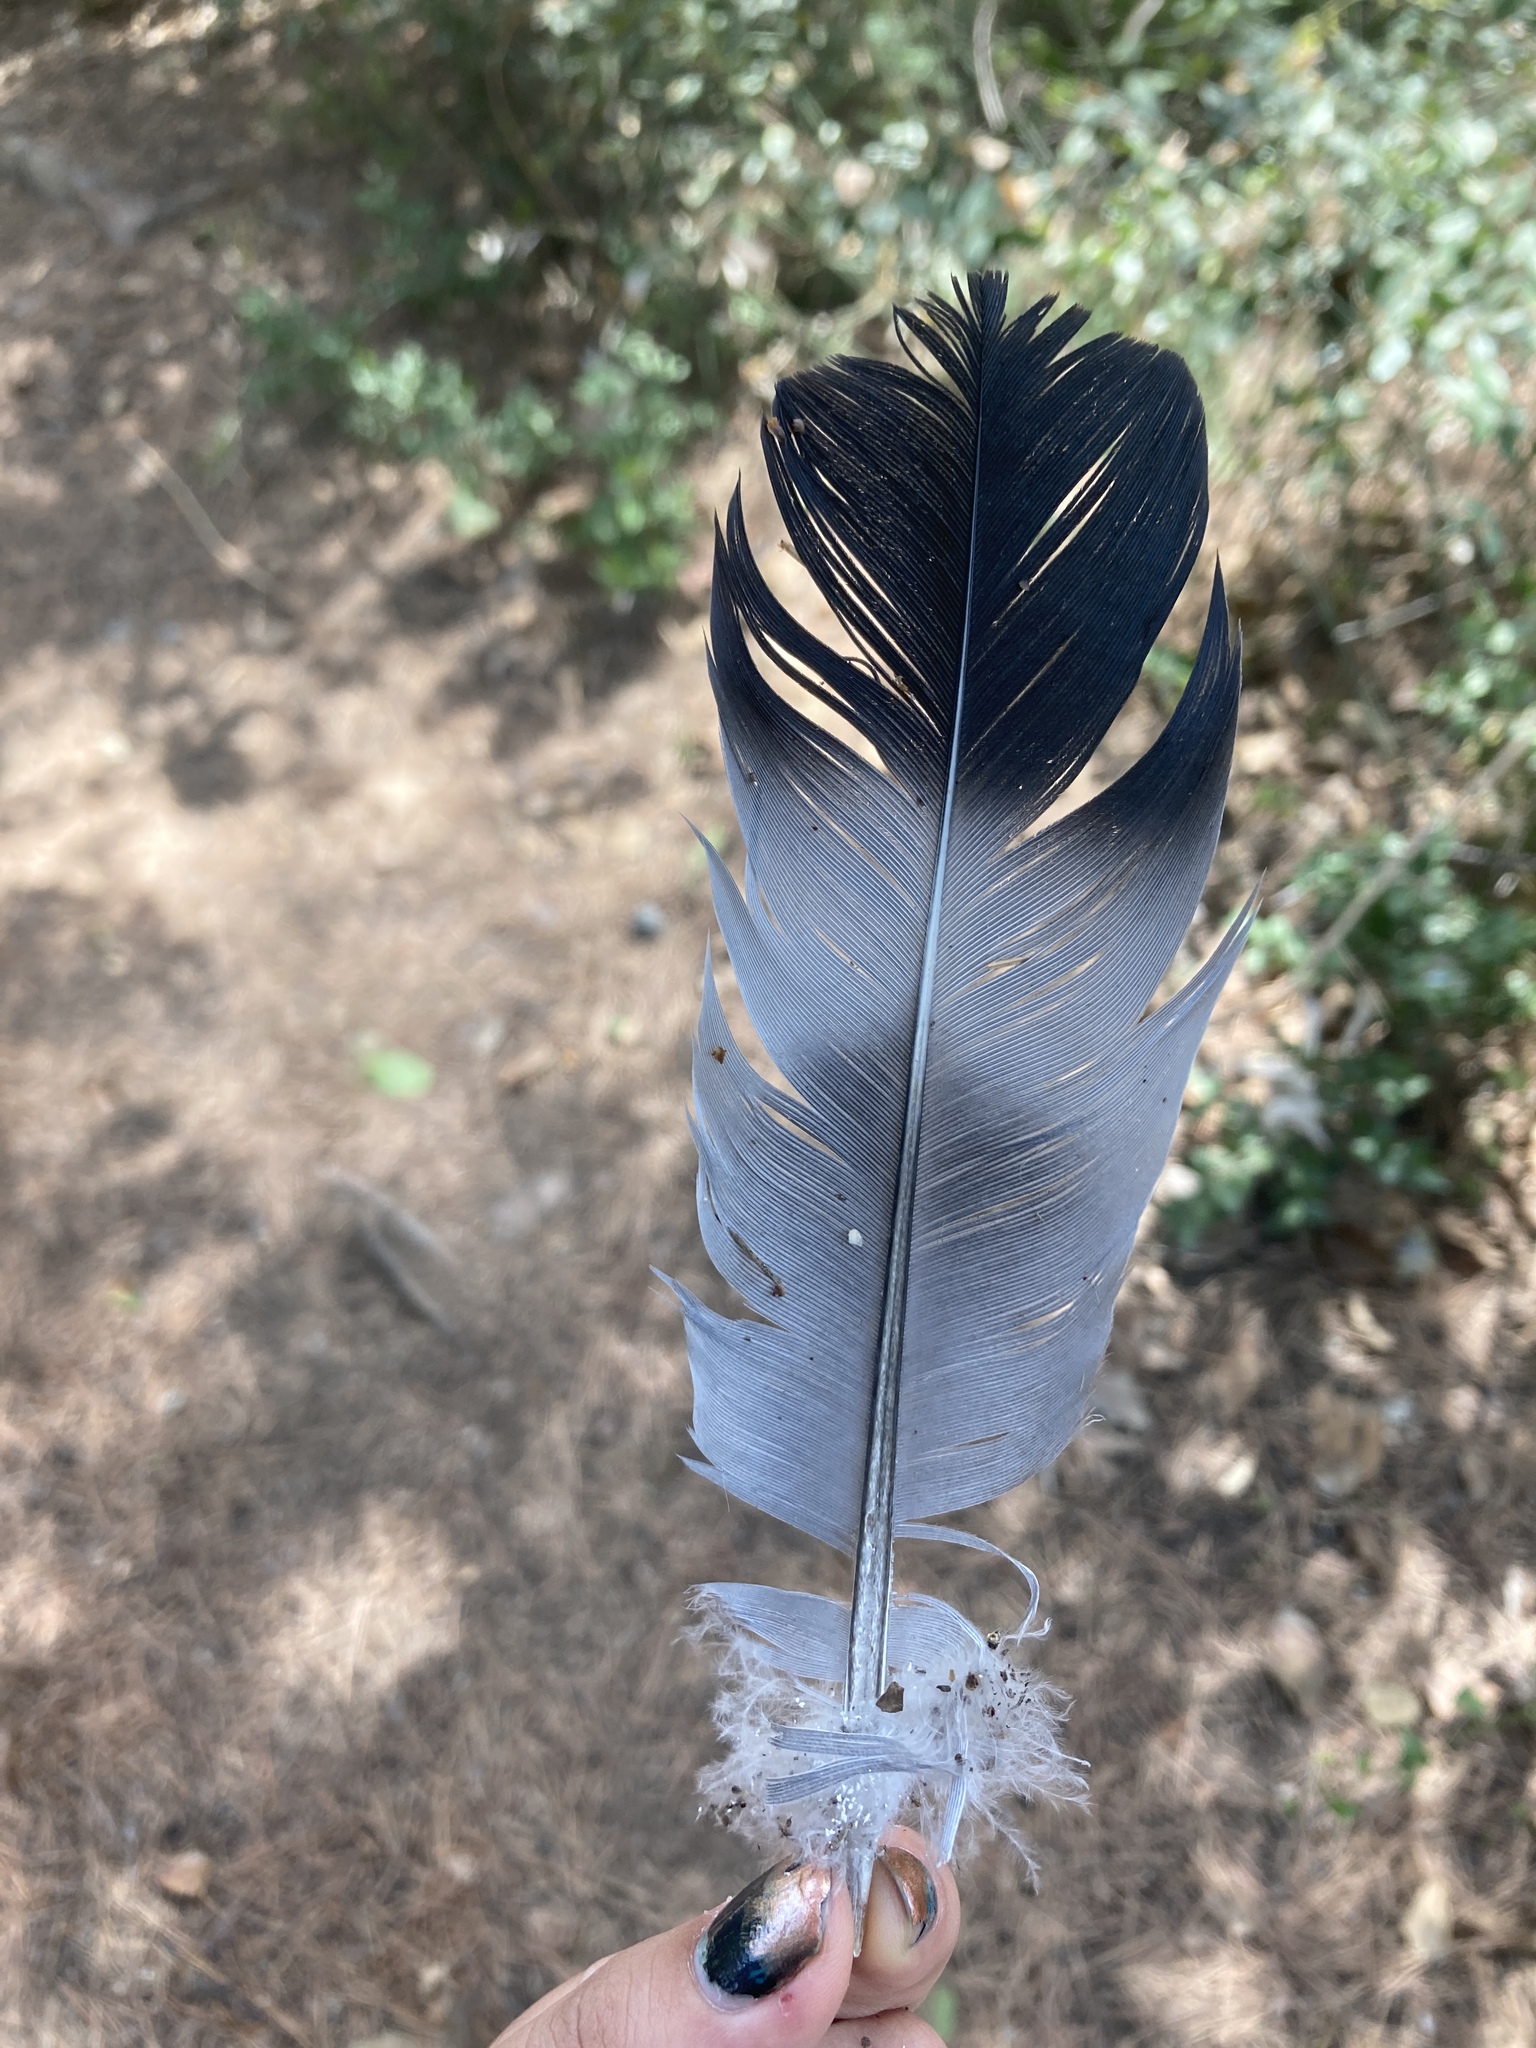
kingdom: Animalia
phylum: Chordata
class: Aves
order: Columbiformes
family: Columbidae
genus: Columba
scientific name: Columba palumbus
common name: Common wood pigeon
